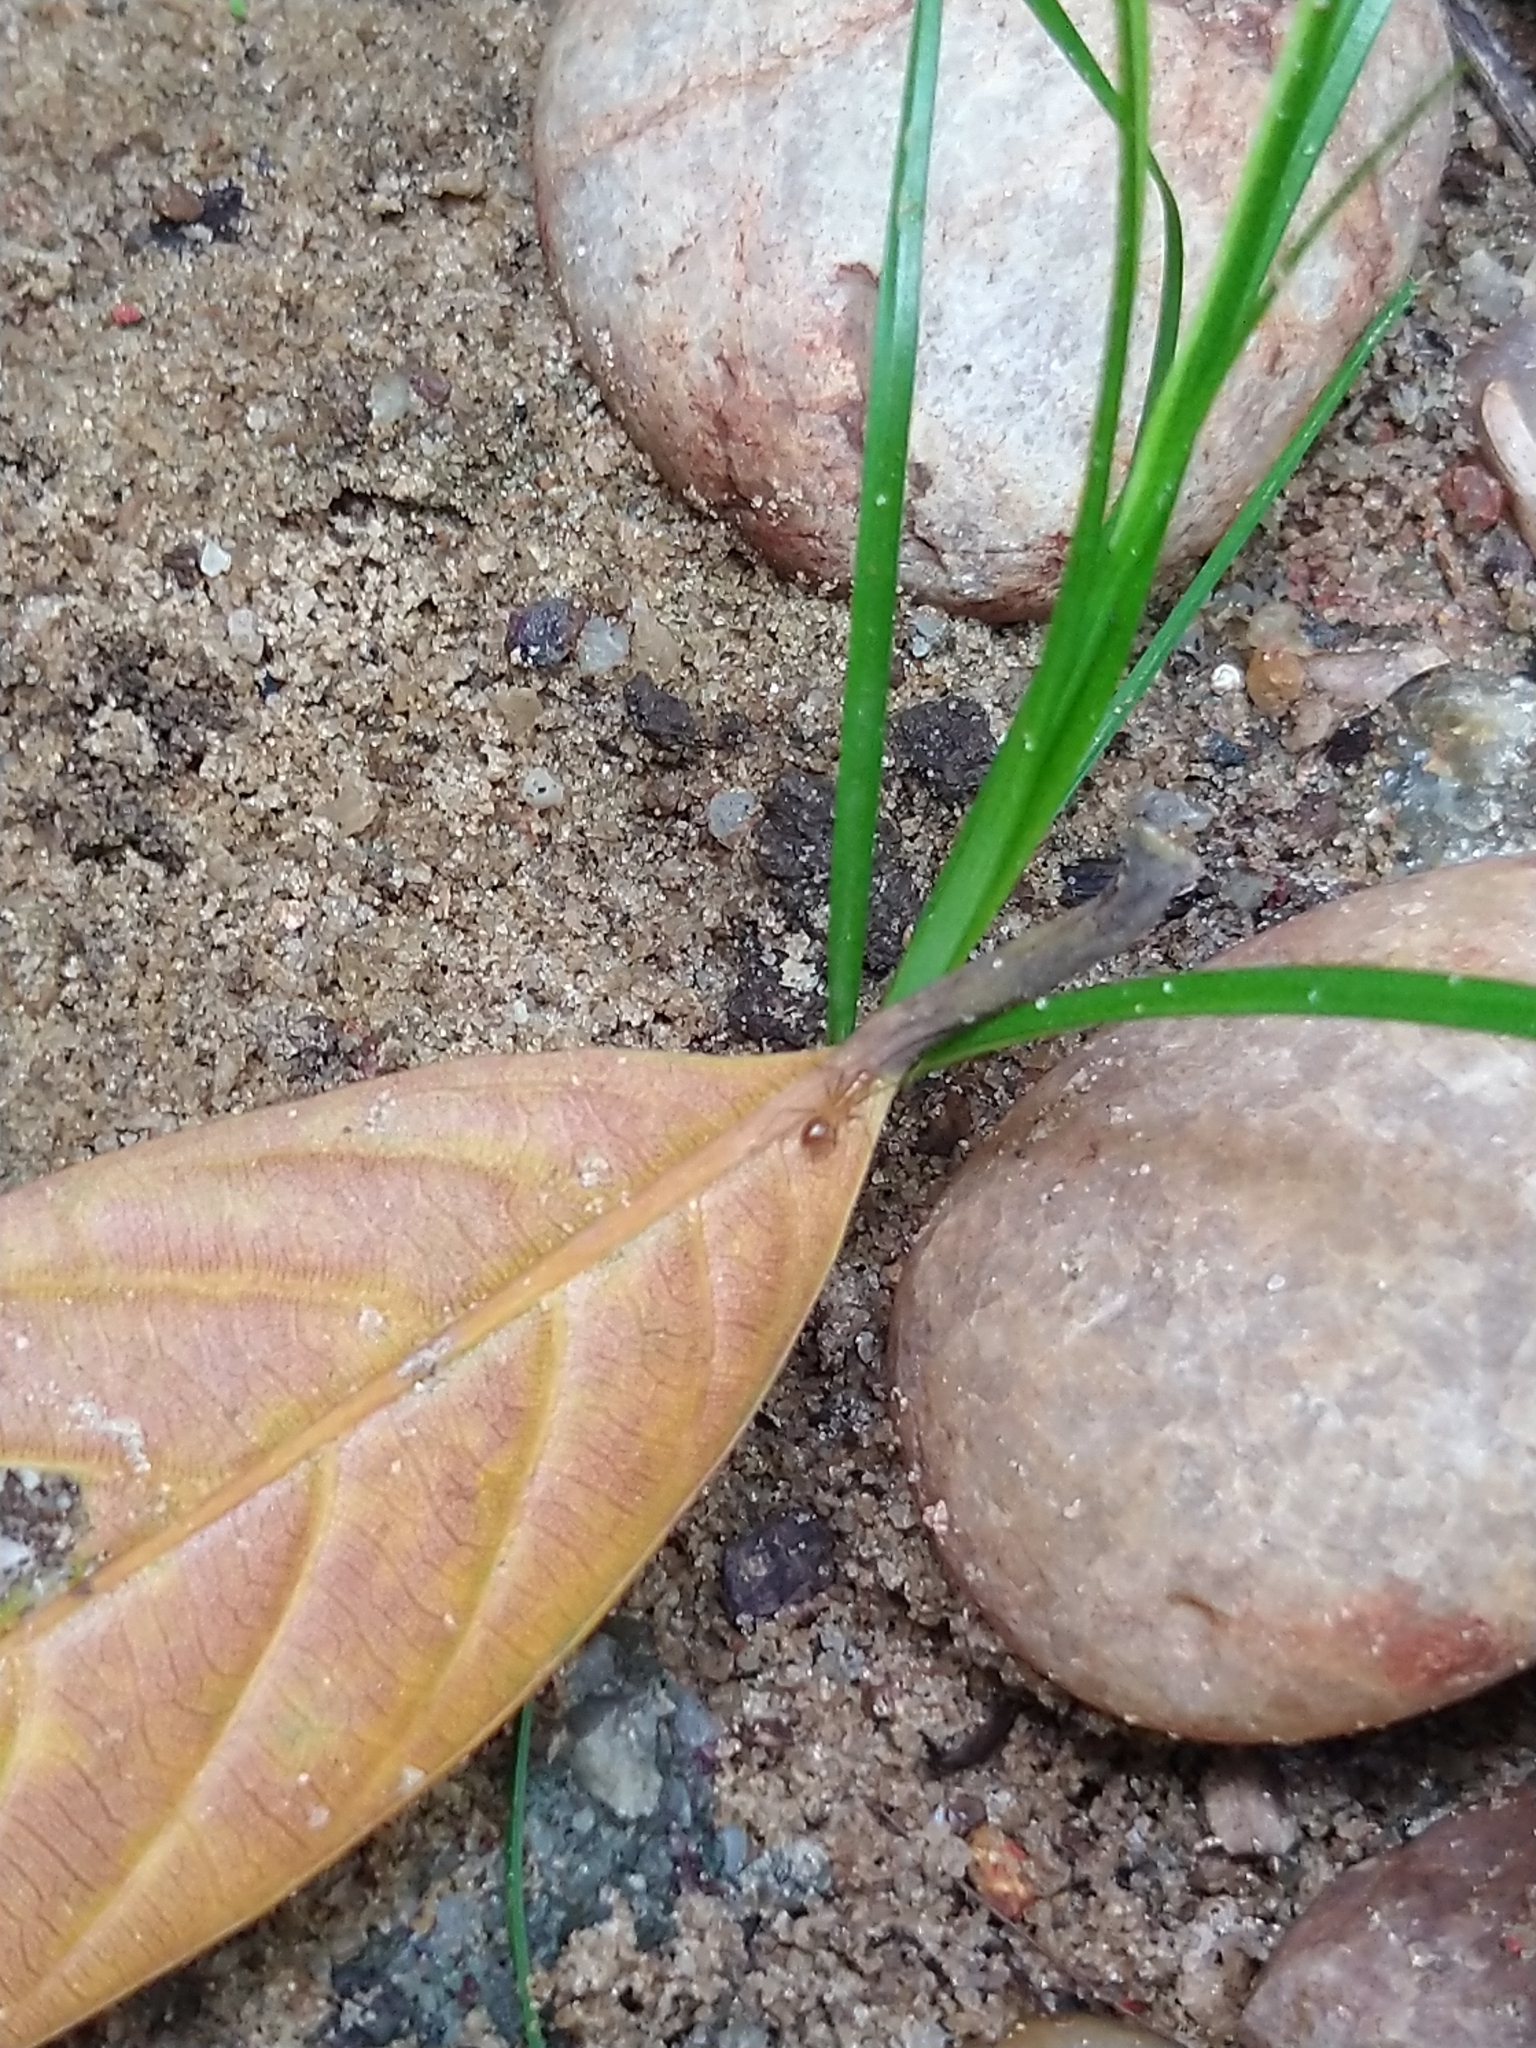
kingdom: Animalia
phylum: Arthropoda
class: Insecta
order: Hymenoptera
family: Formicidae
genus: Anoplolepis
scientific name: Anoplolepis gracilipes
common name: Ant
